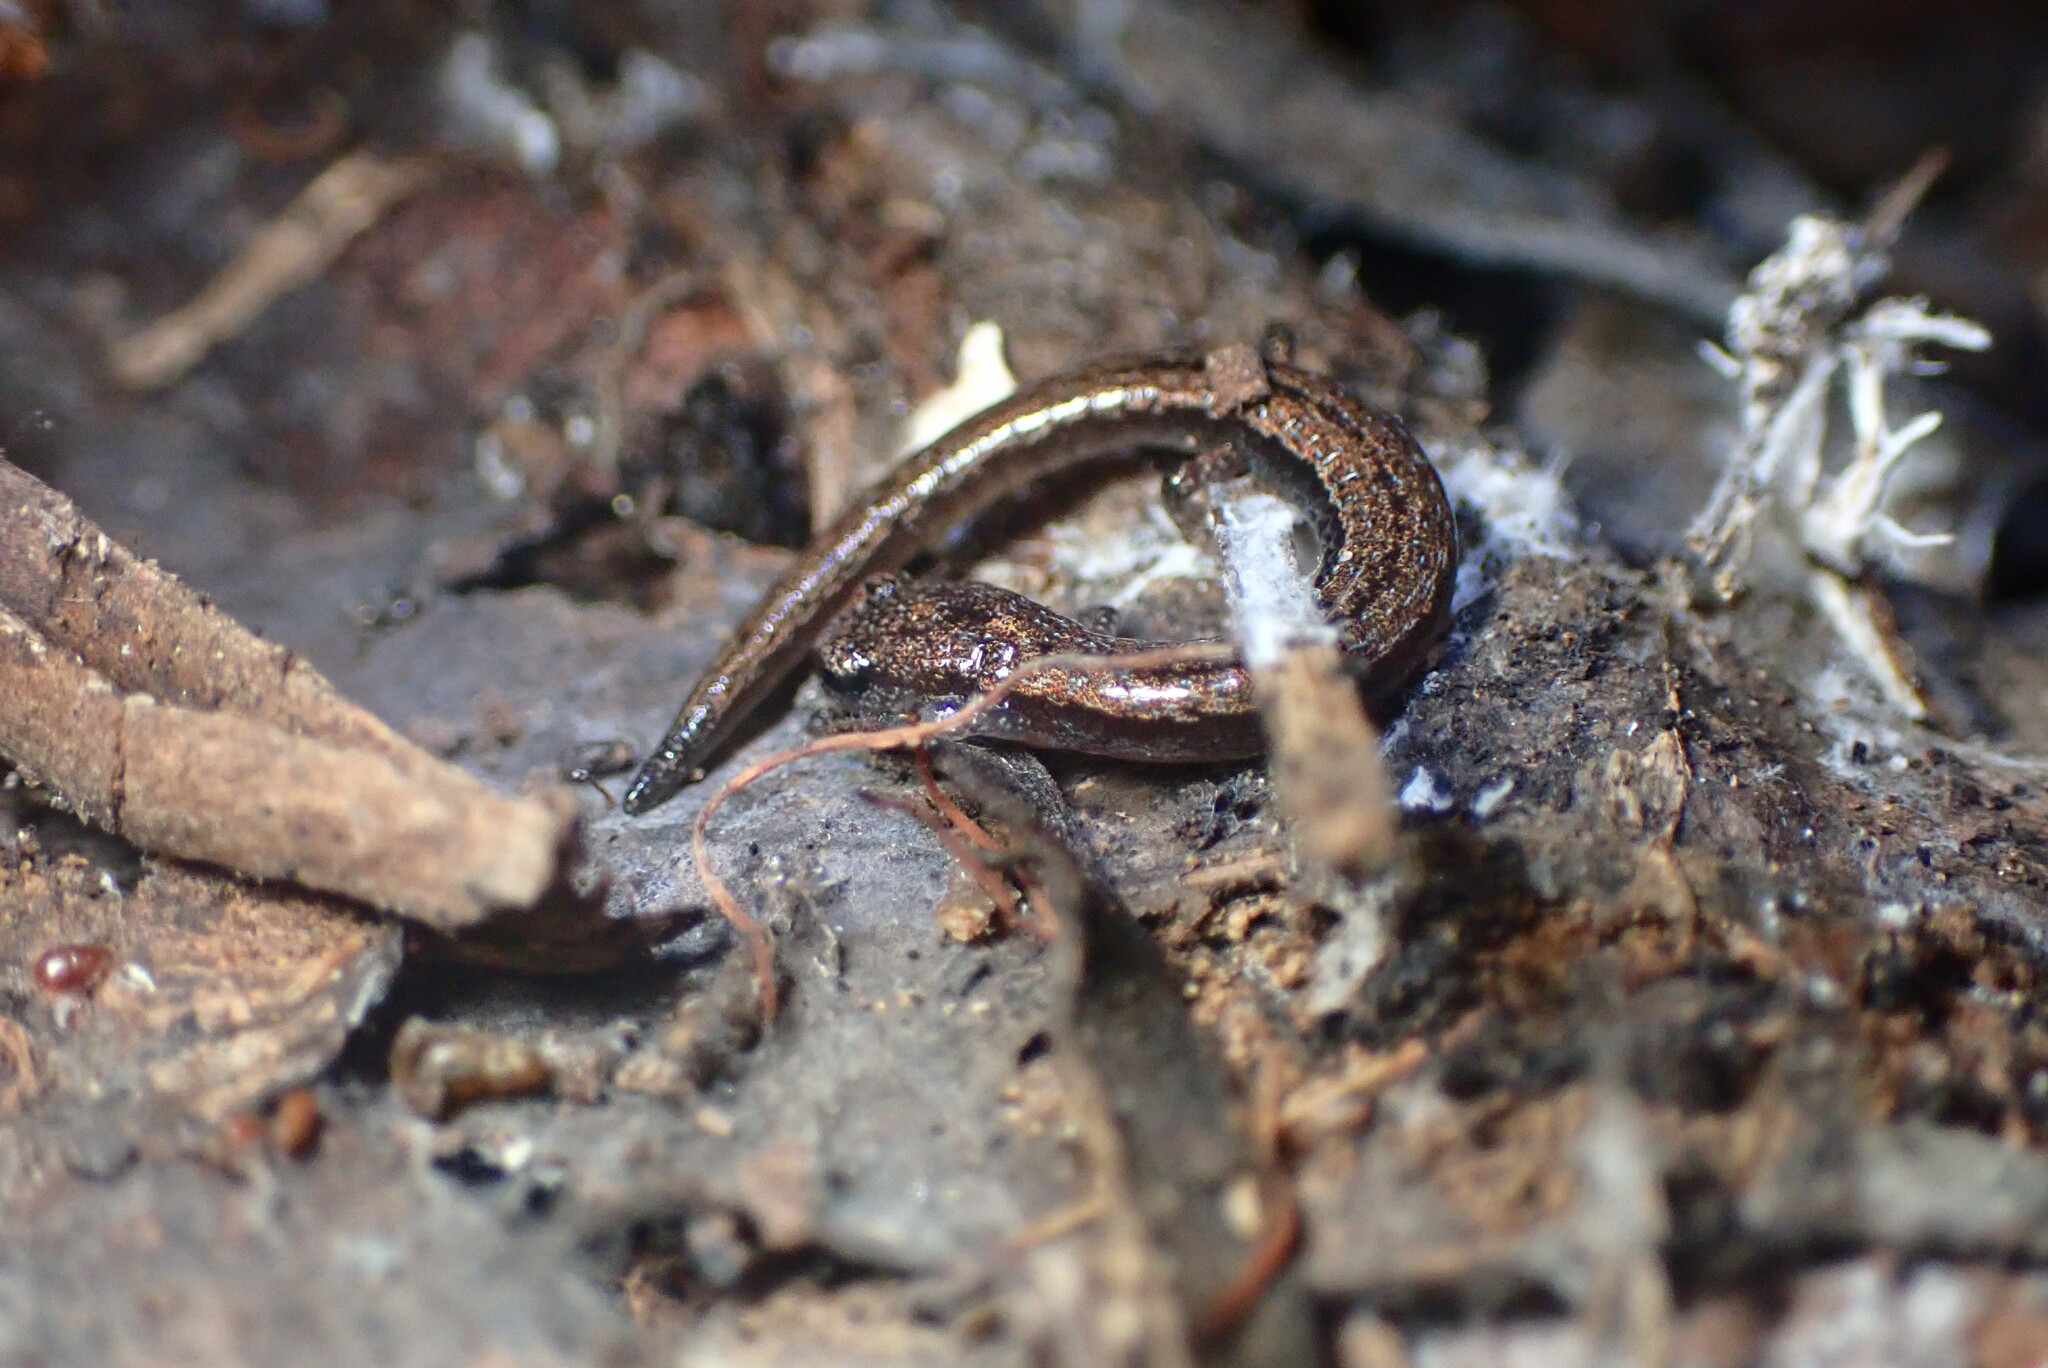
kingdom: Animalia
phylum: Chordata
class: Amphibia
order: Caudata
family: Plethodontidae
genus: Batrachoseps
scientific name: Batrachoseps attenuatus
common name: California slender salamander
